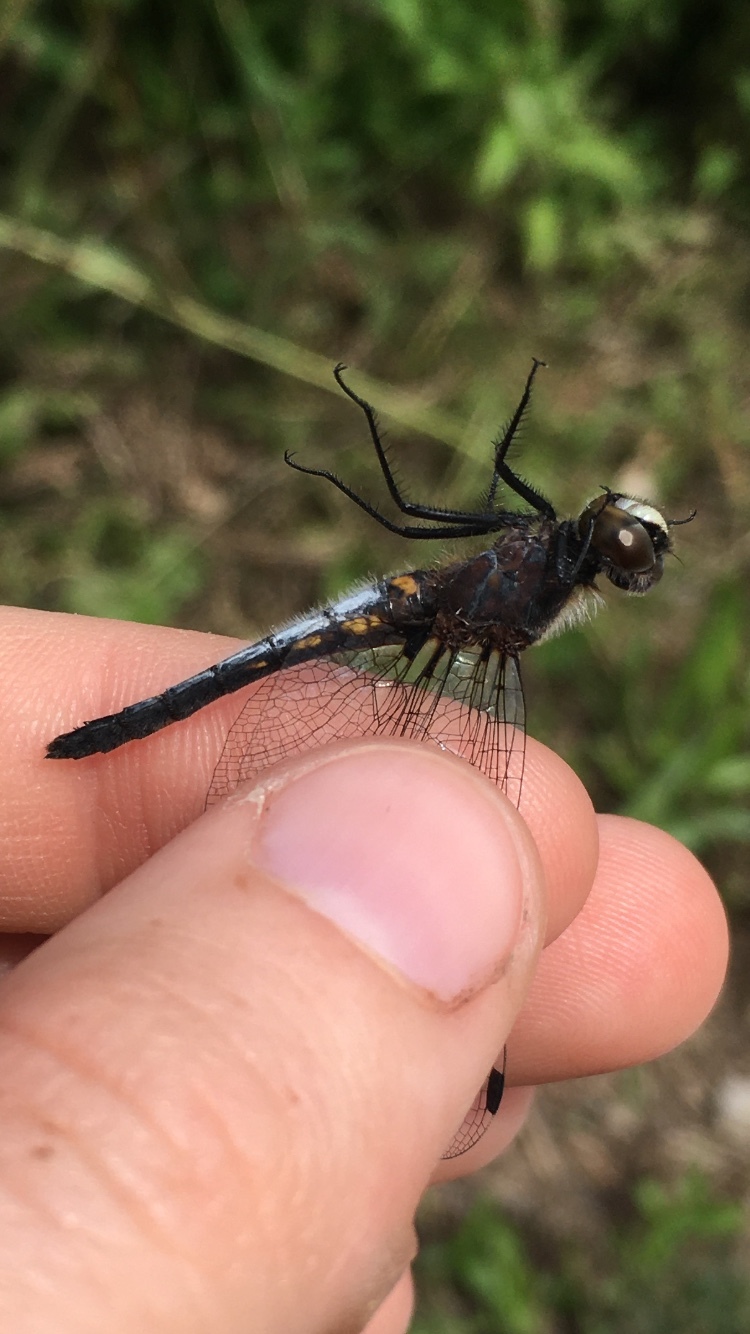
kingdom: Animalia
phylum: Arthropoda
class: Insecta
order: Odonata
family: Libellulidae
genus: Leucorrhinia
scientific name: Leucorrhinia frigida
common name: Frosted whiteface
